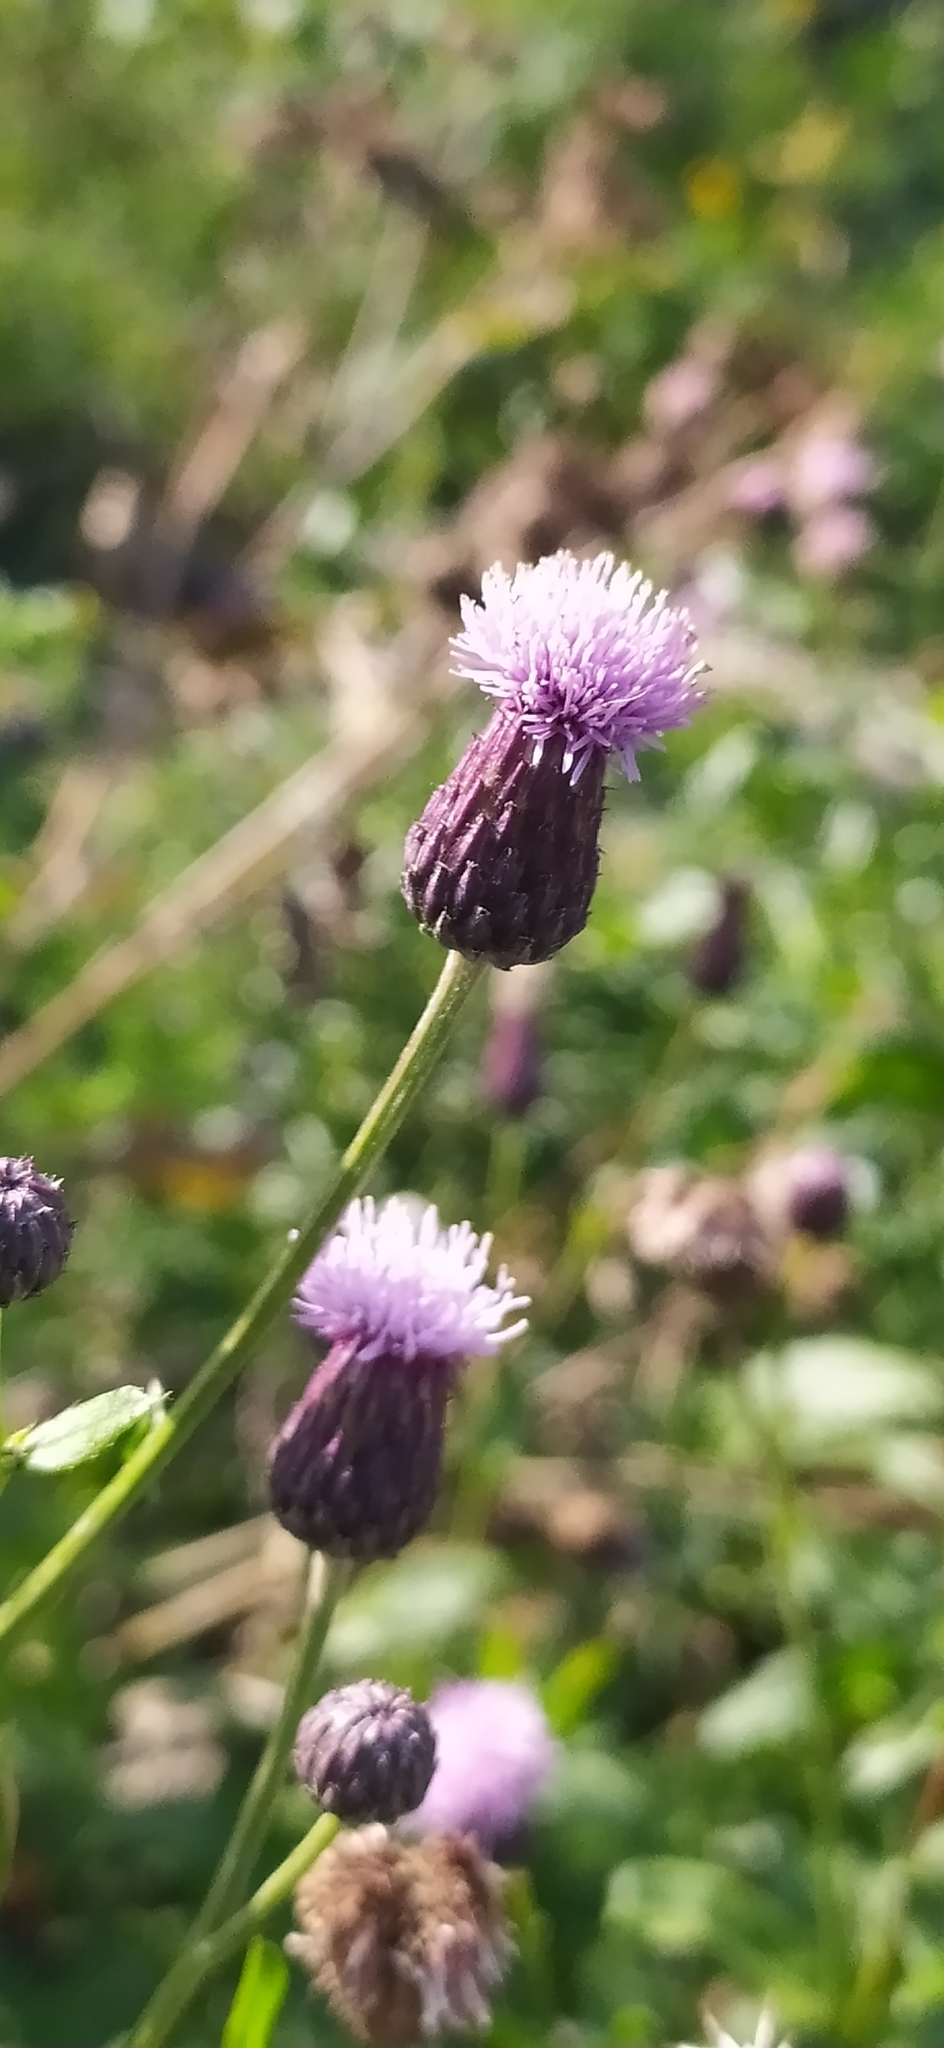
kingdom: Plantae
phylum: Tracheophyta
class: Magnoliopsida
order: Asterales
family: Asteraceae
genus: Cirsium
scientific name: Cirsium arvense
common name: Creeping thistle
